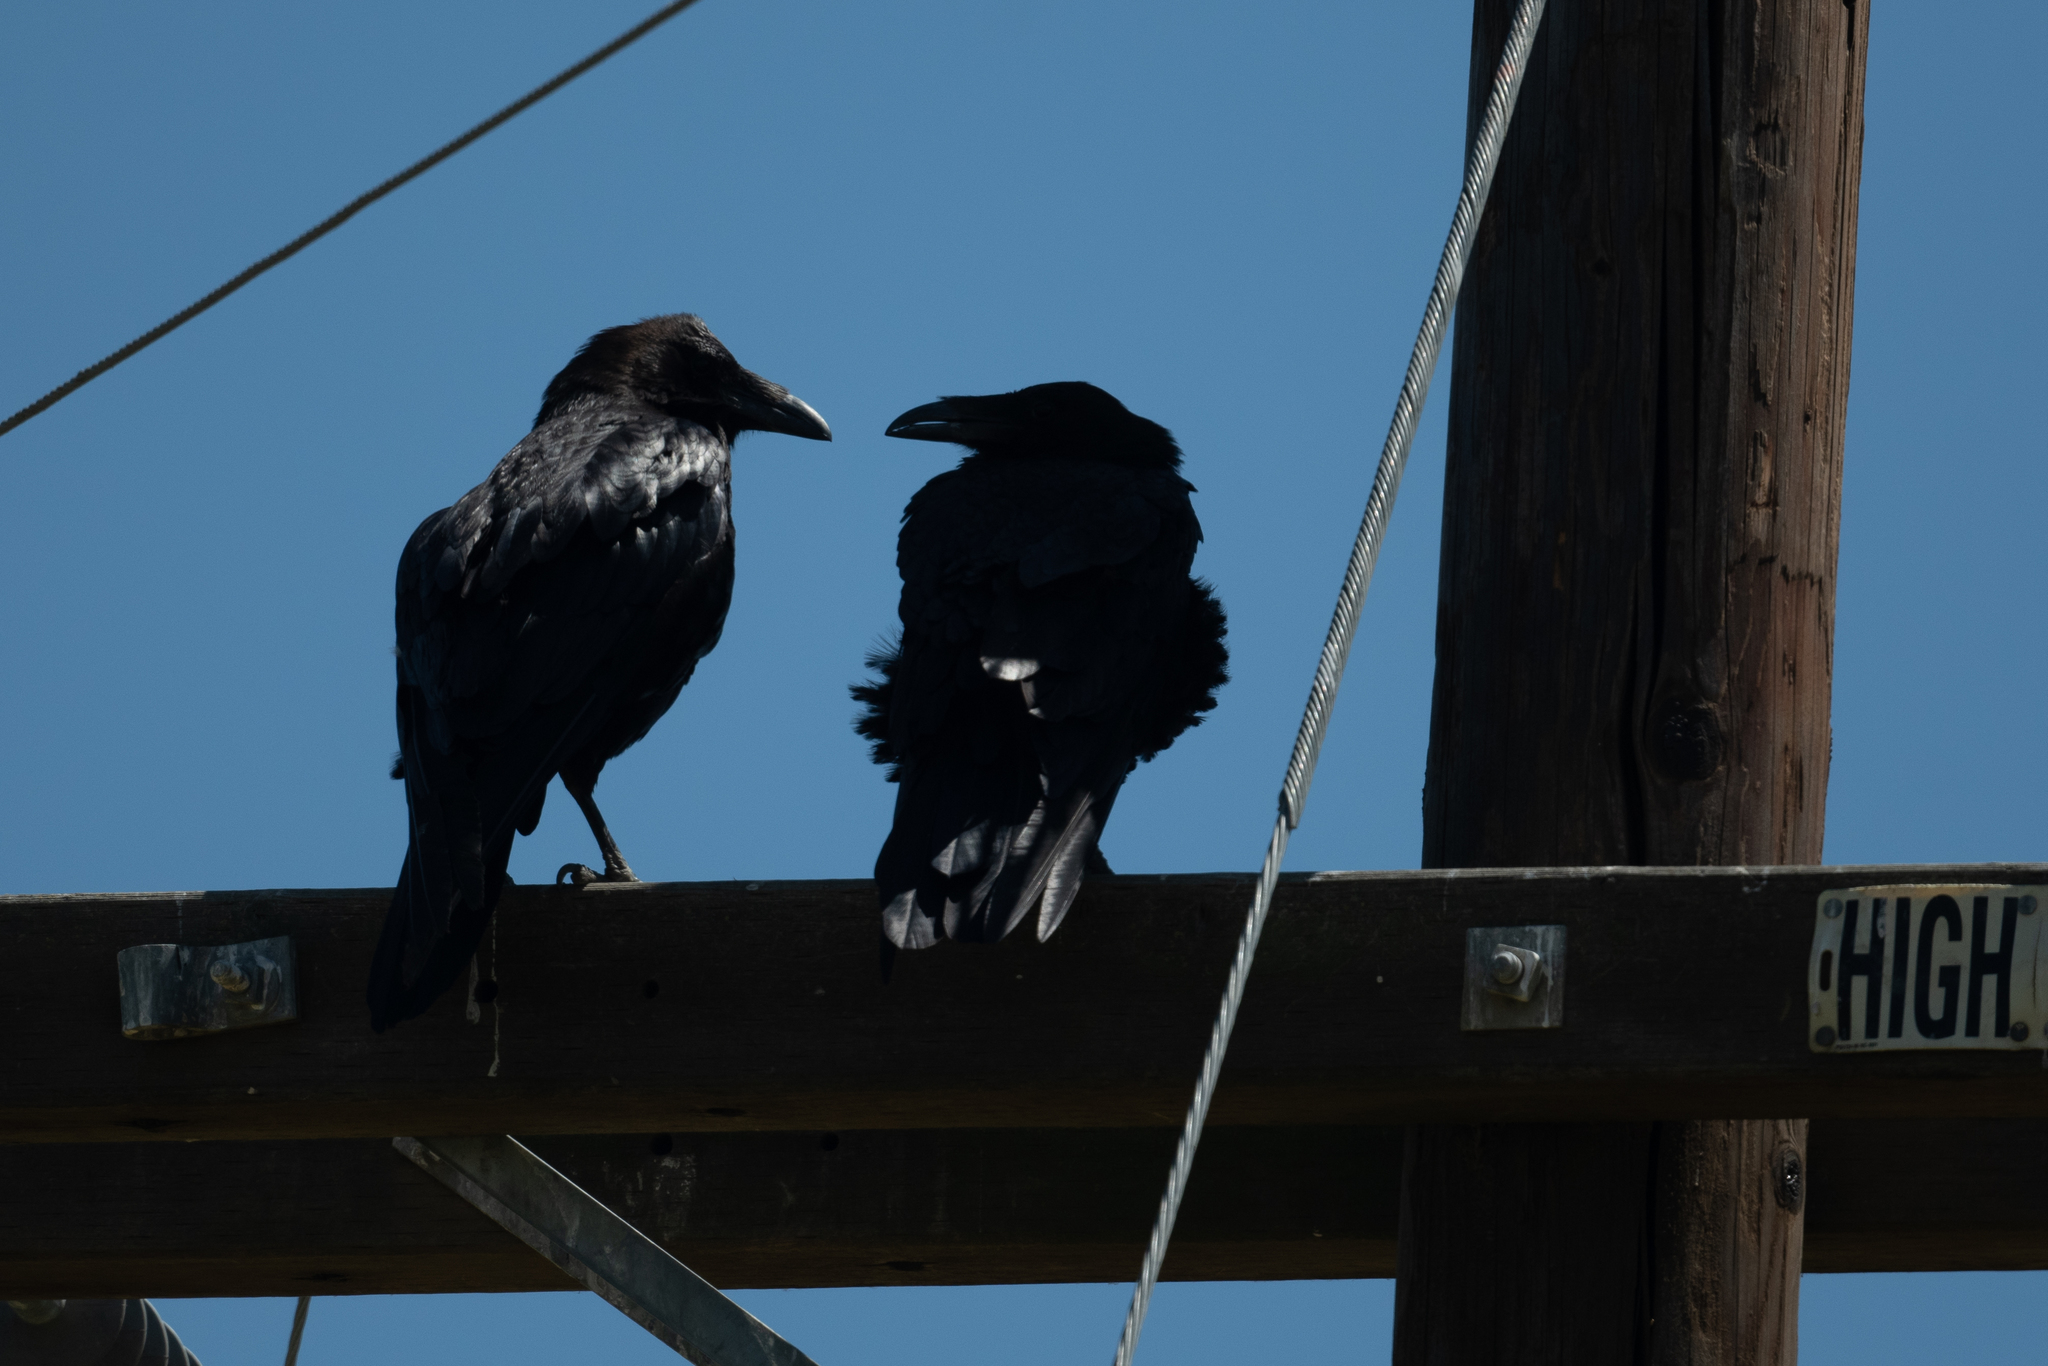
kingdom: Animalia
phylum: Chordata
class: Aves
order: Passeriformes
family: Corvidae
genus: Corvus
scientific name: Corvus corax
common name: Common raven
